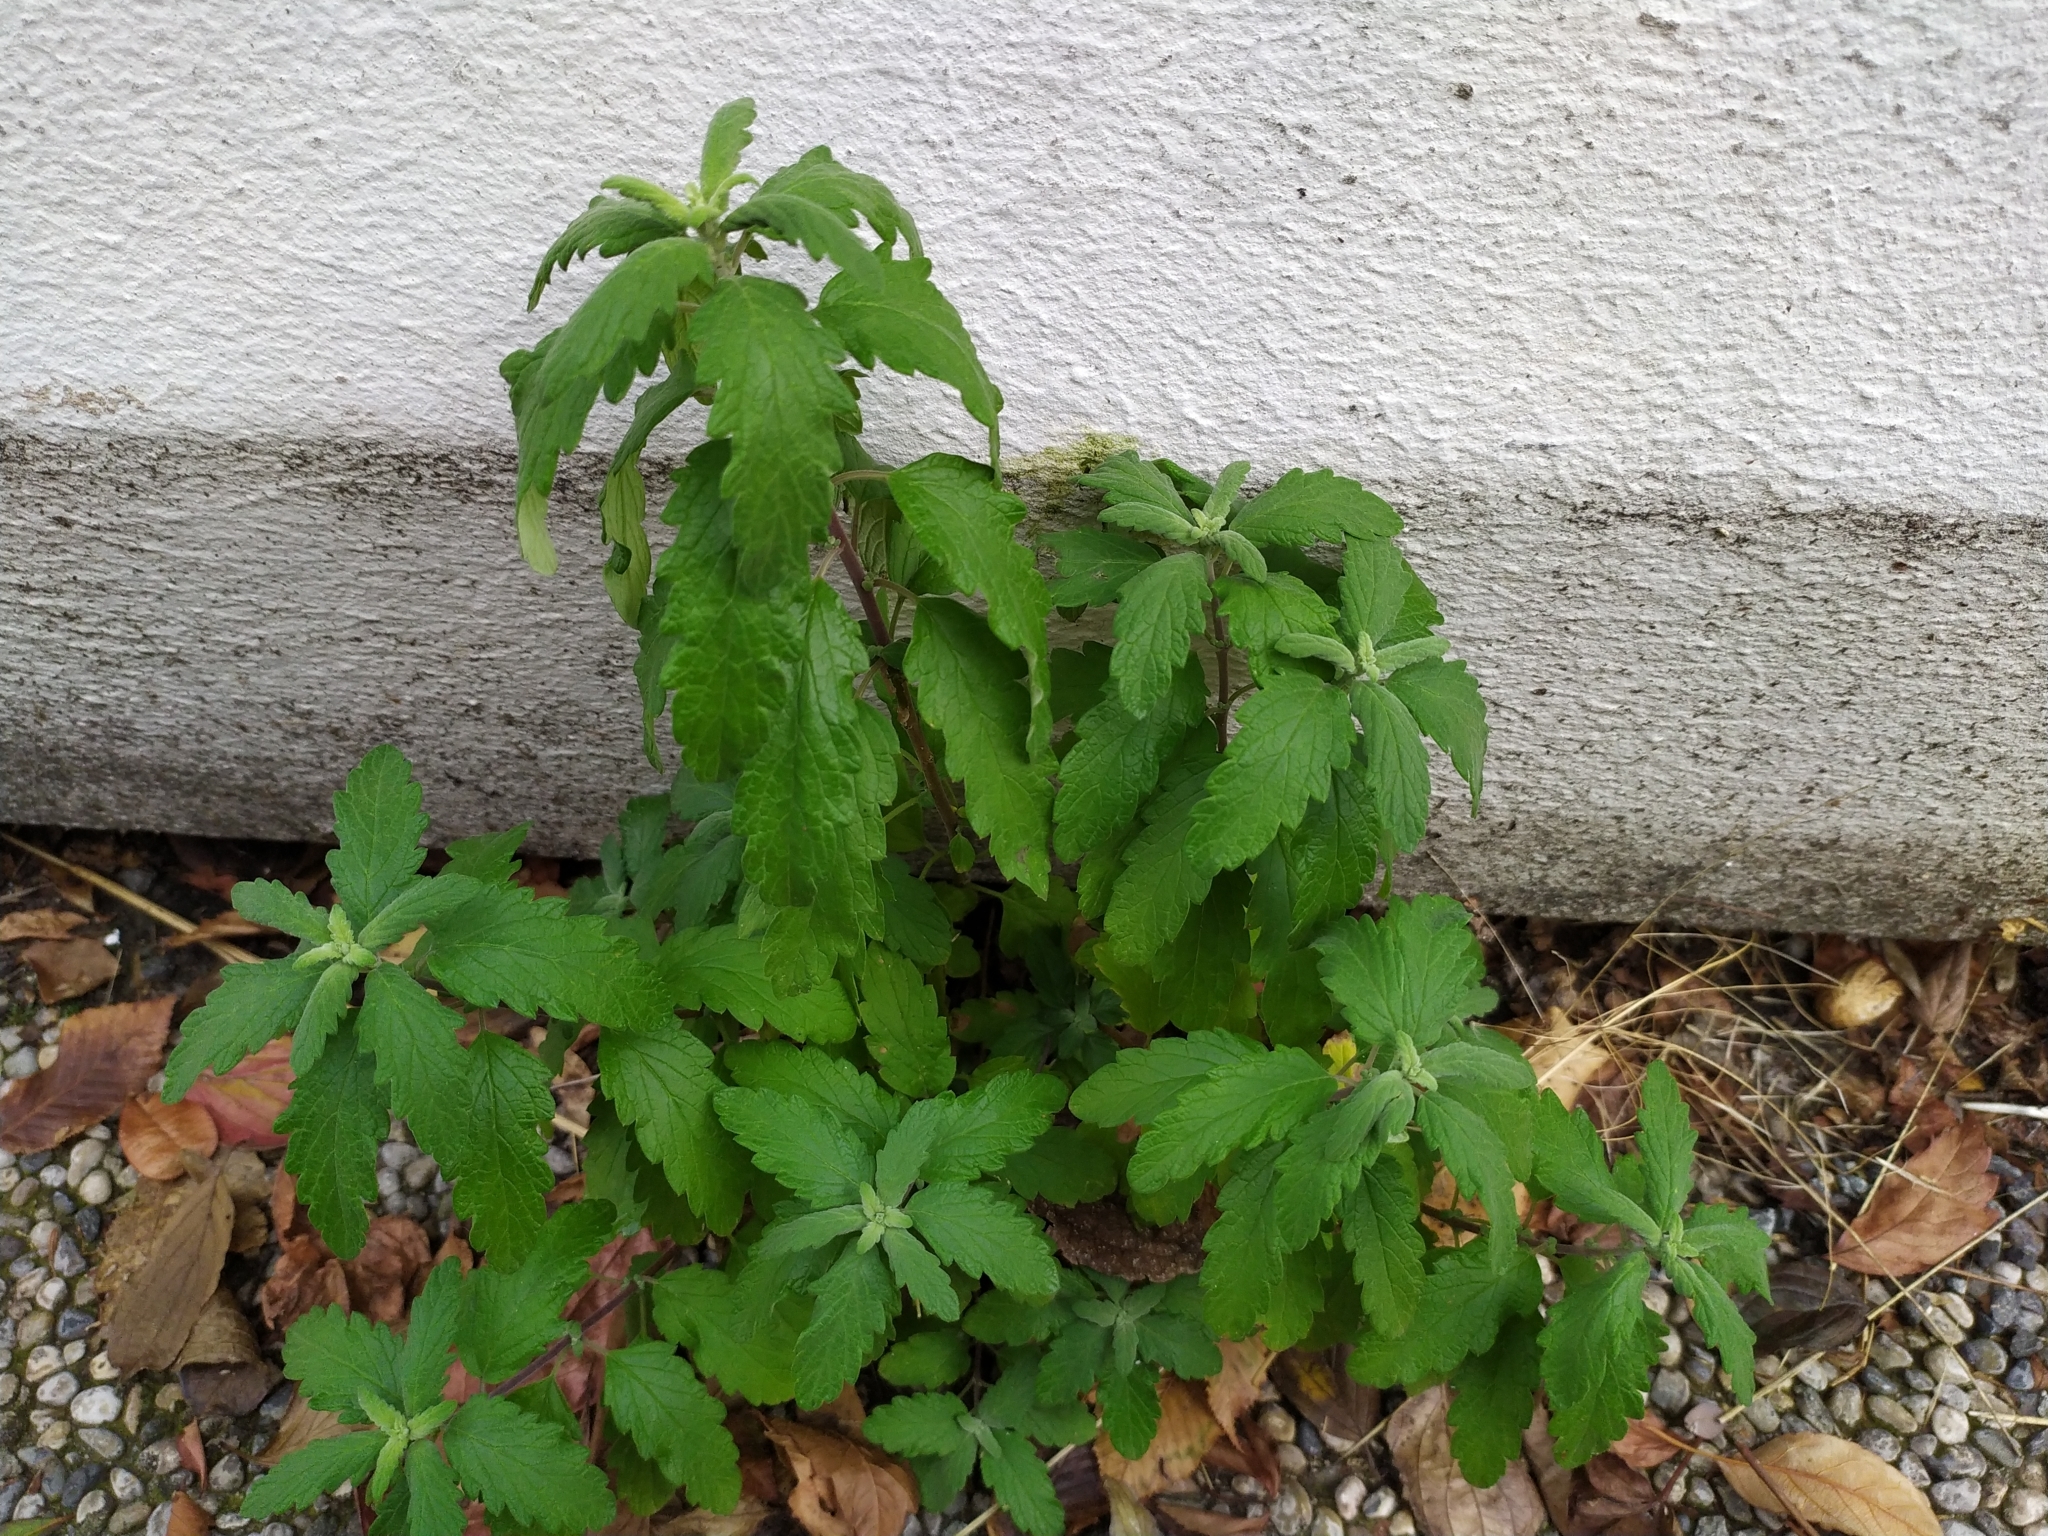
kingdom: Plantae
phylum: Tracheophyta
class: Magnoliopsida
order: Lamiales
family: Lamiaceae
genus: Caryopteris
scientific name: Caryopteris clandonensis
